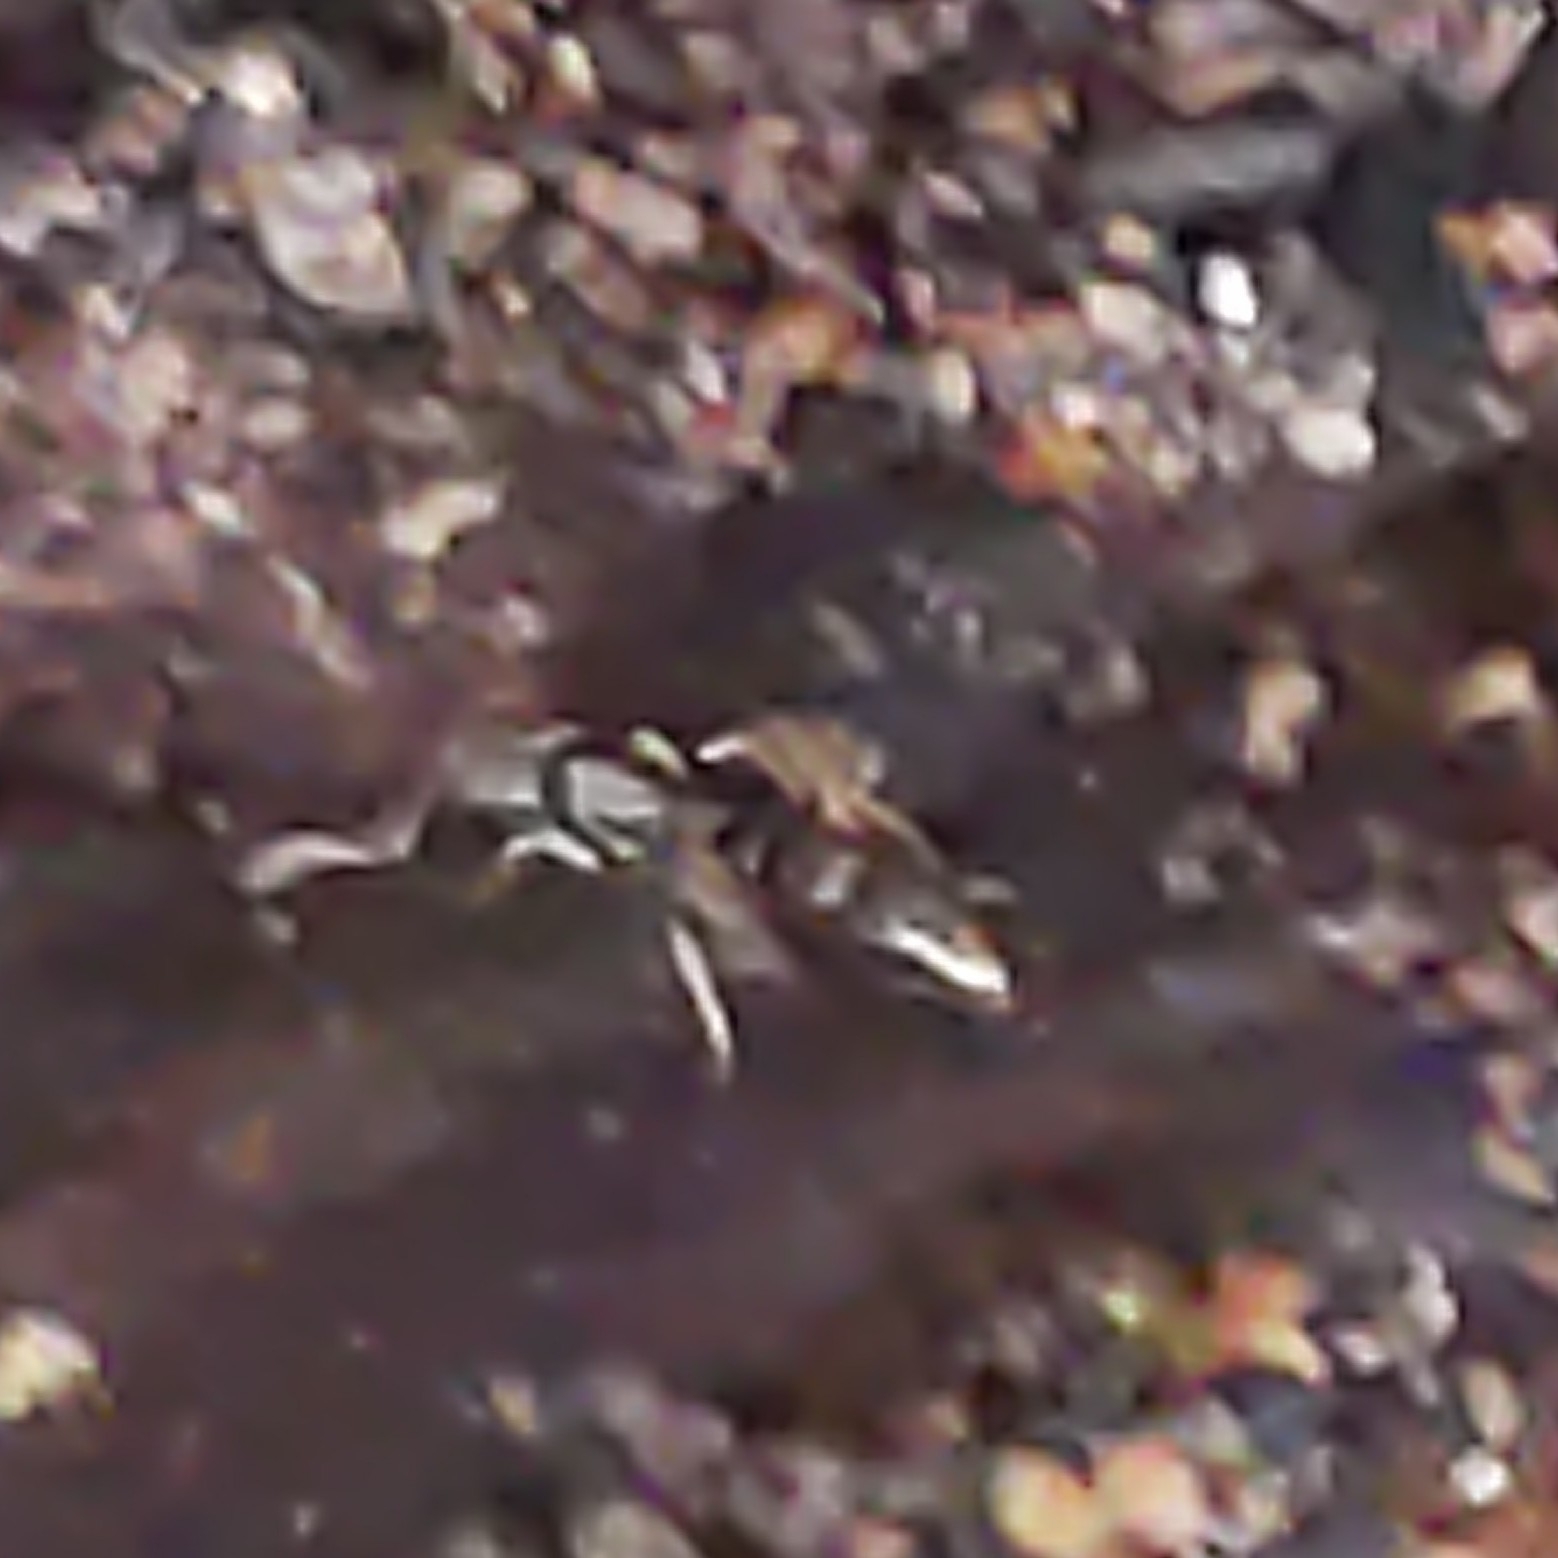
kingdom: Animalia
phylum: Arthropoda
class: Insecta
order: Hymenoptera
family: Formicidae
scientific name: Formicidae
